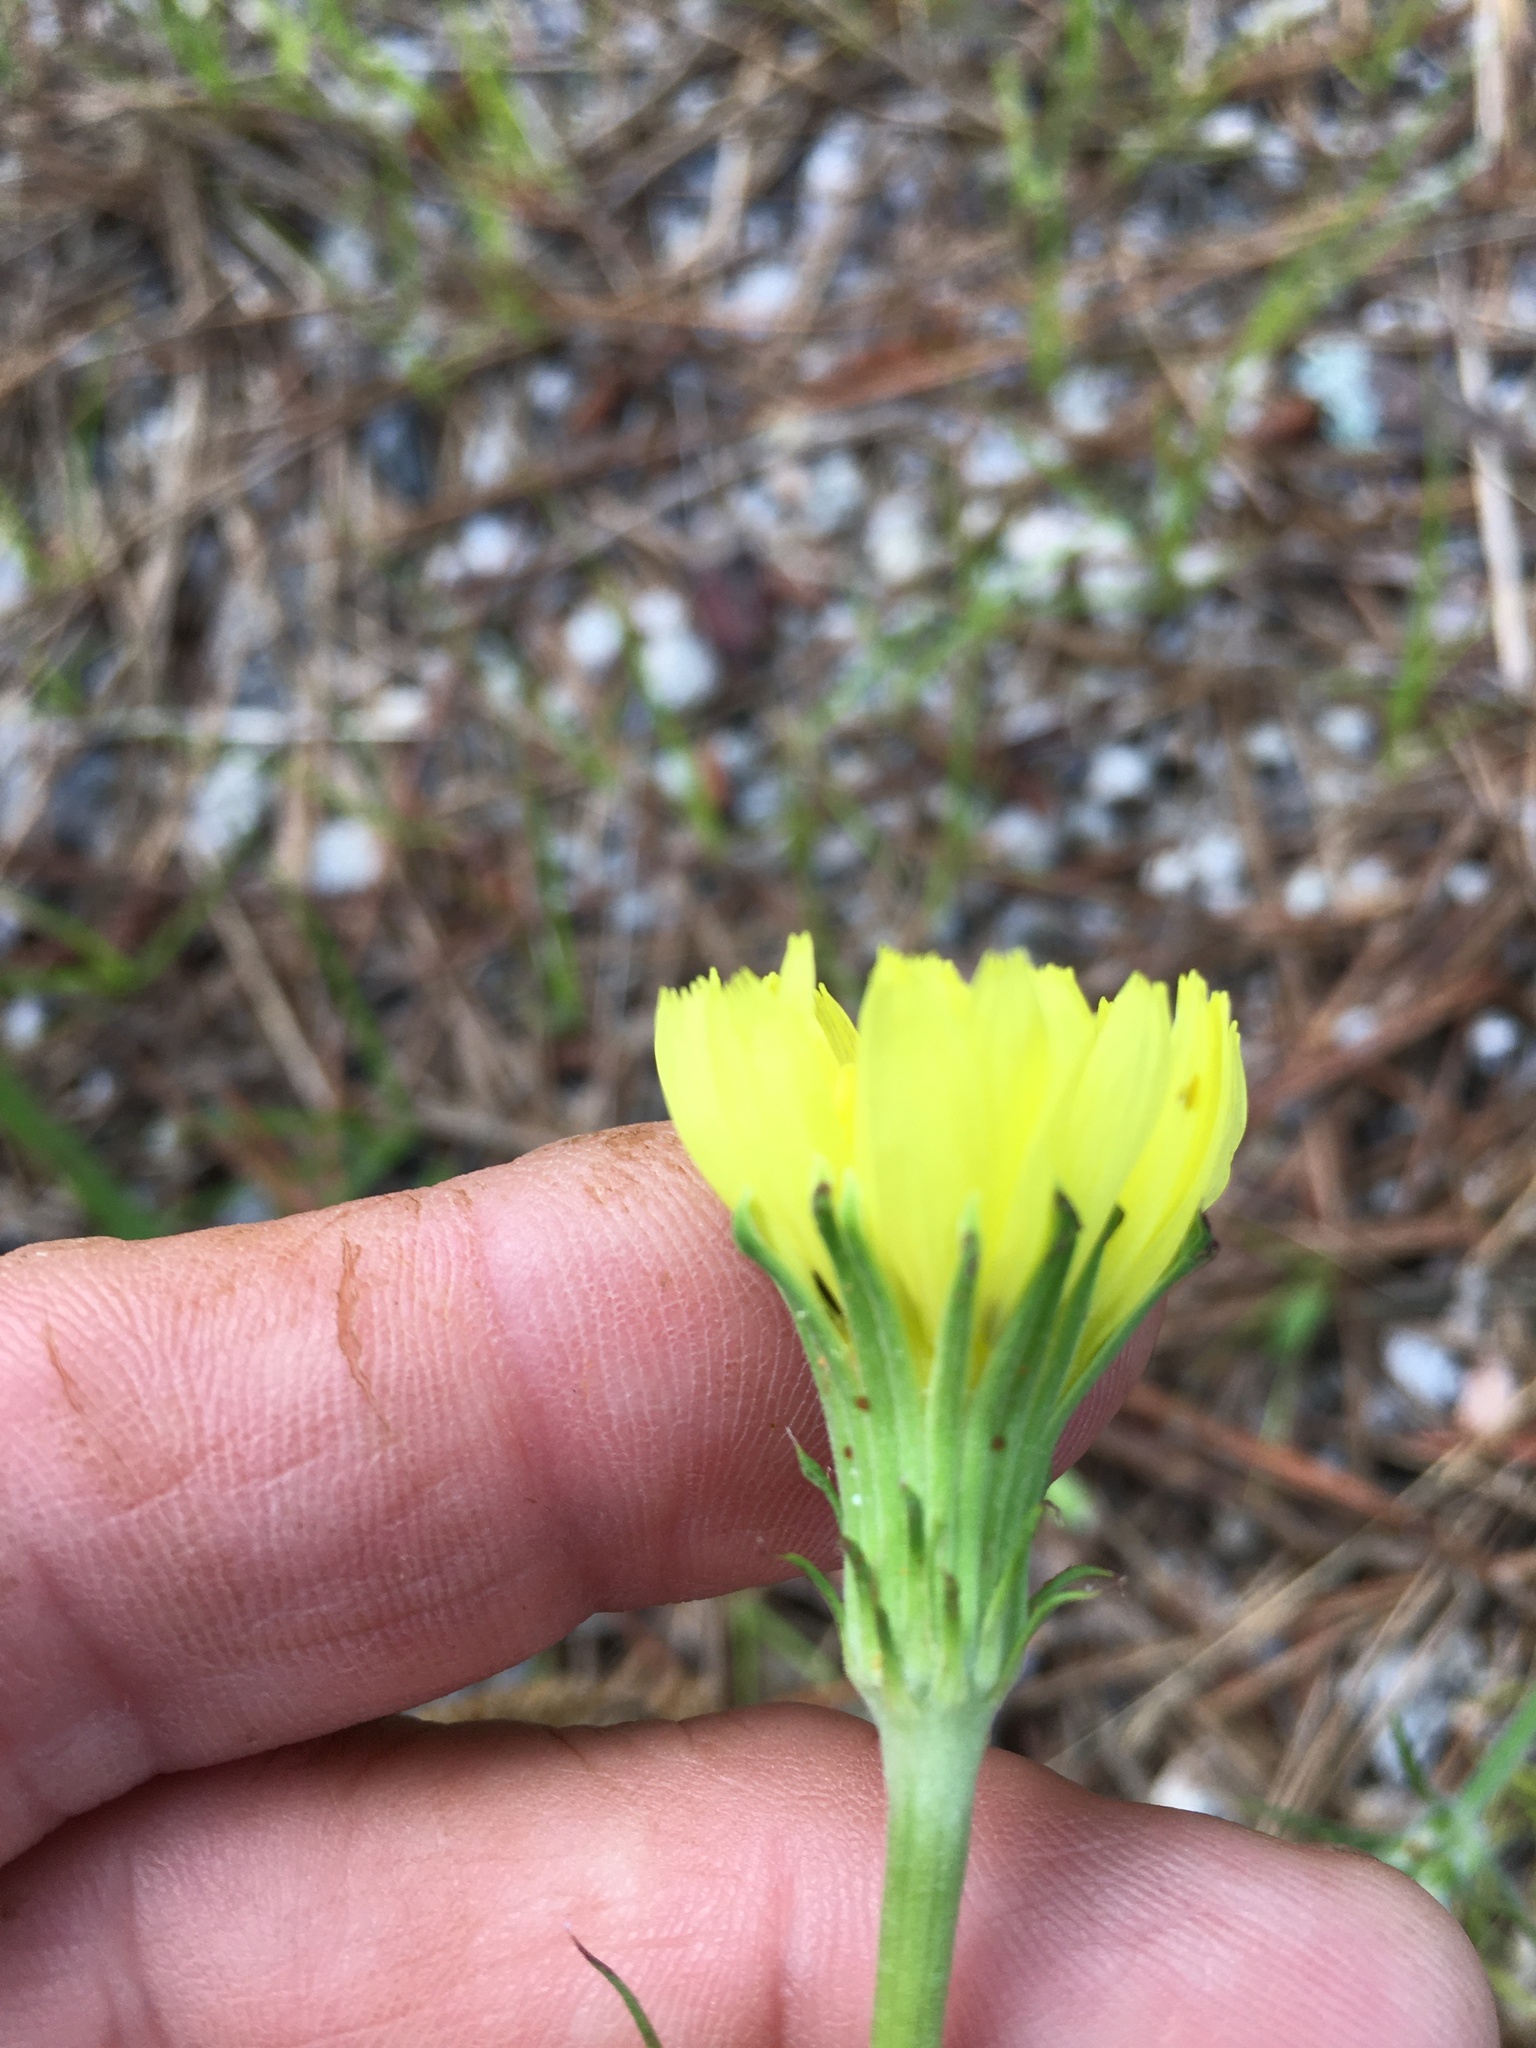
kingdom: Plantae
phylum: Tracheophyta
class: Magnoliopsida
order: Asterales
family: Asteraceae
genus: Pyrrhopappus
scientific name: Pyrrhopappus carolinianus
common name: Carolina desert-chicory
